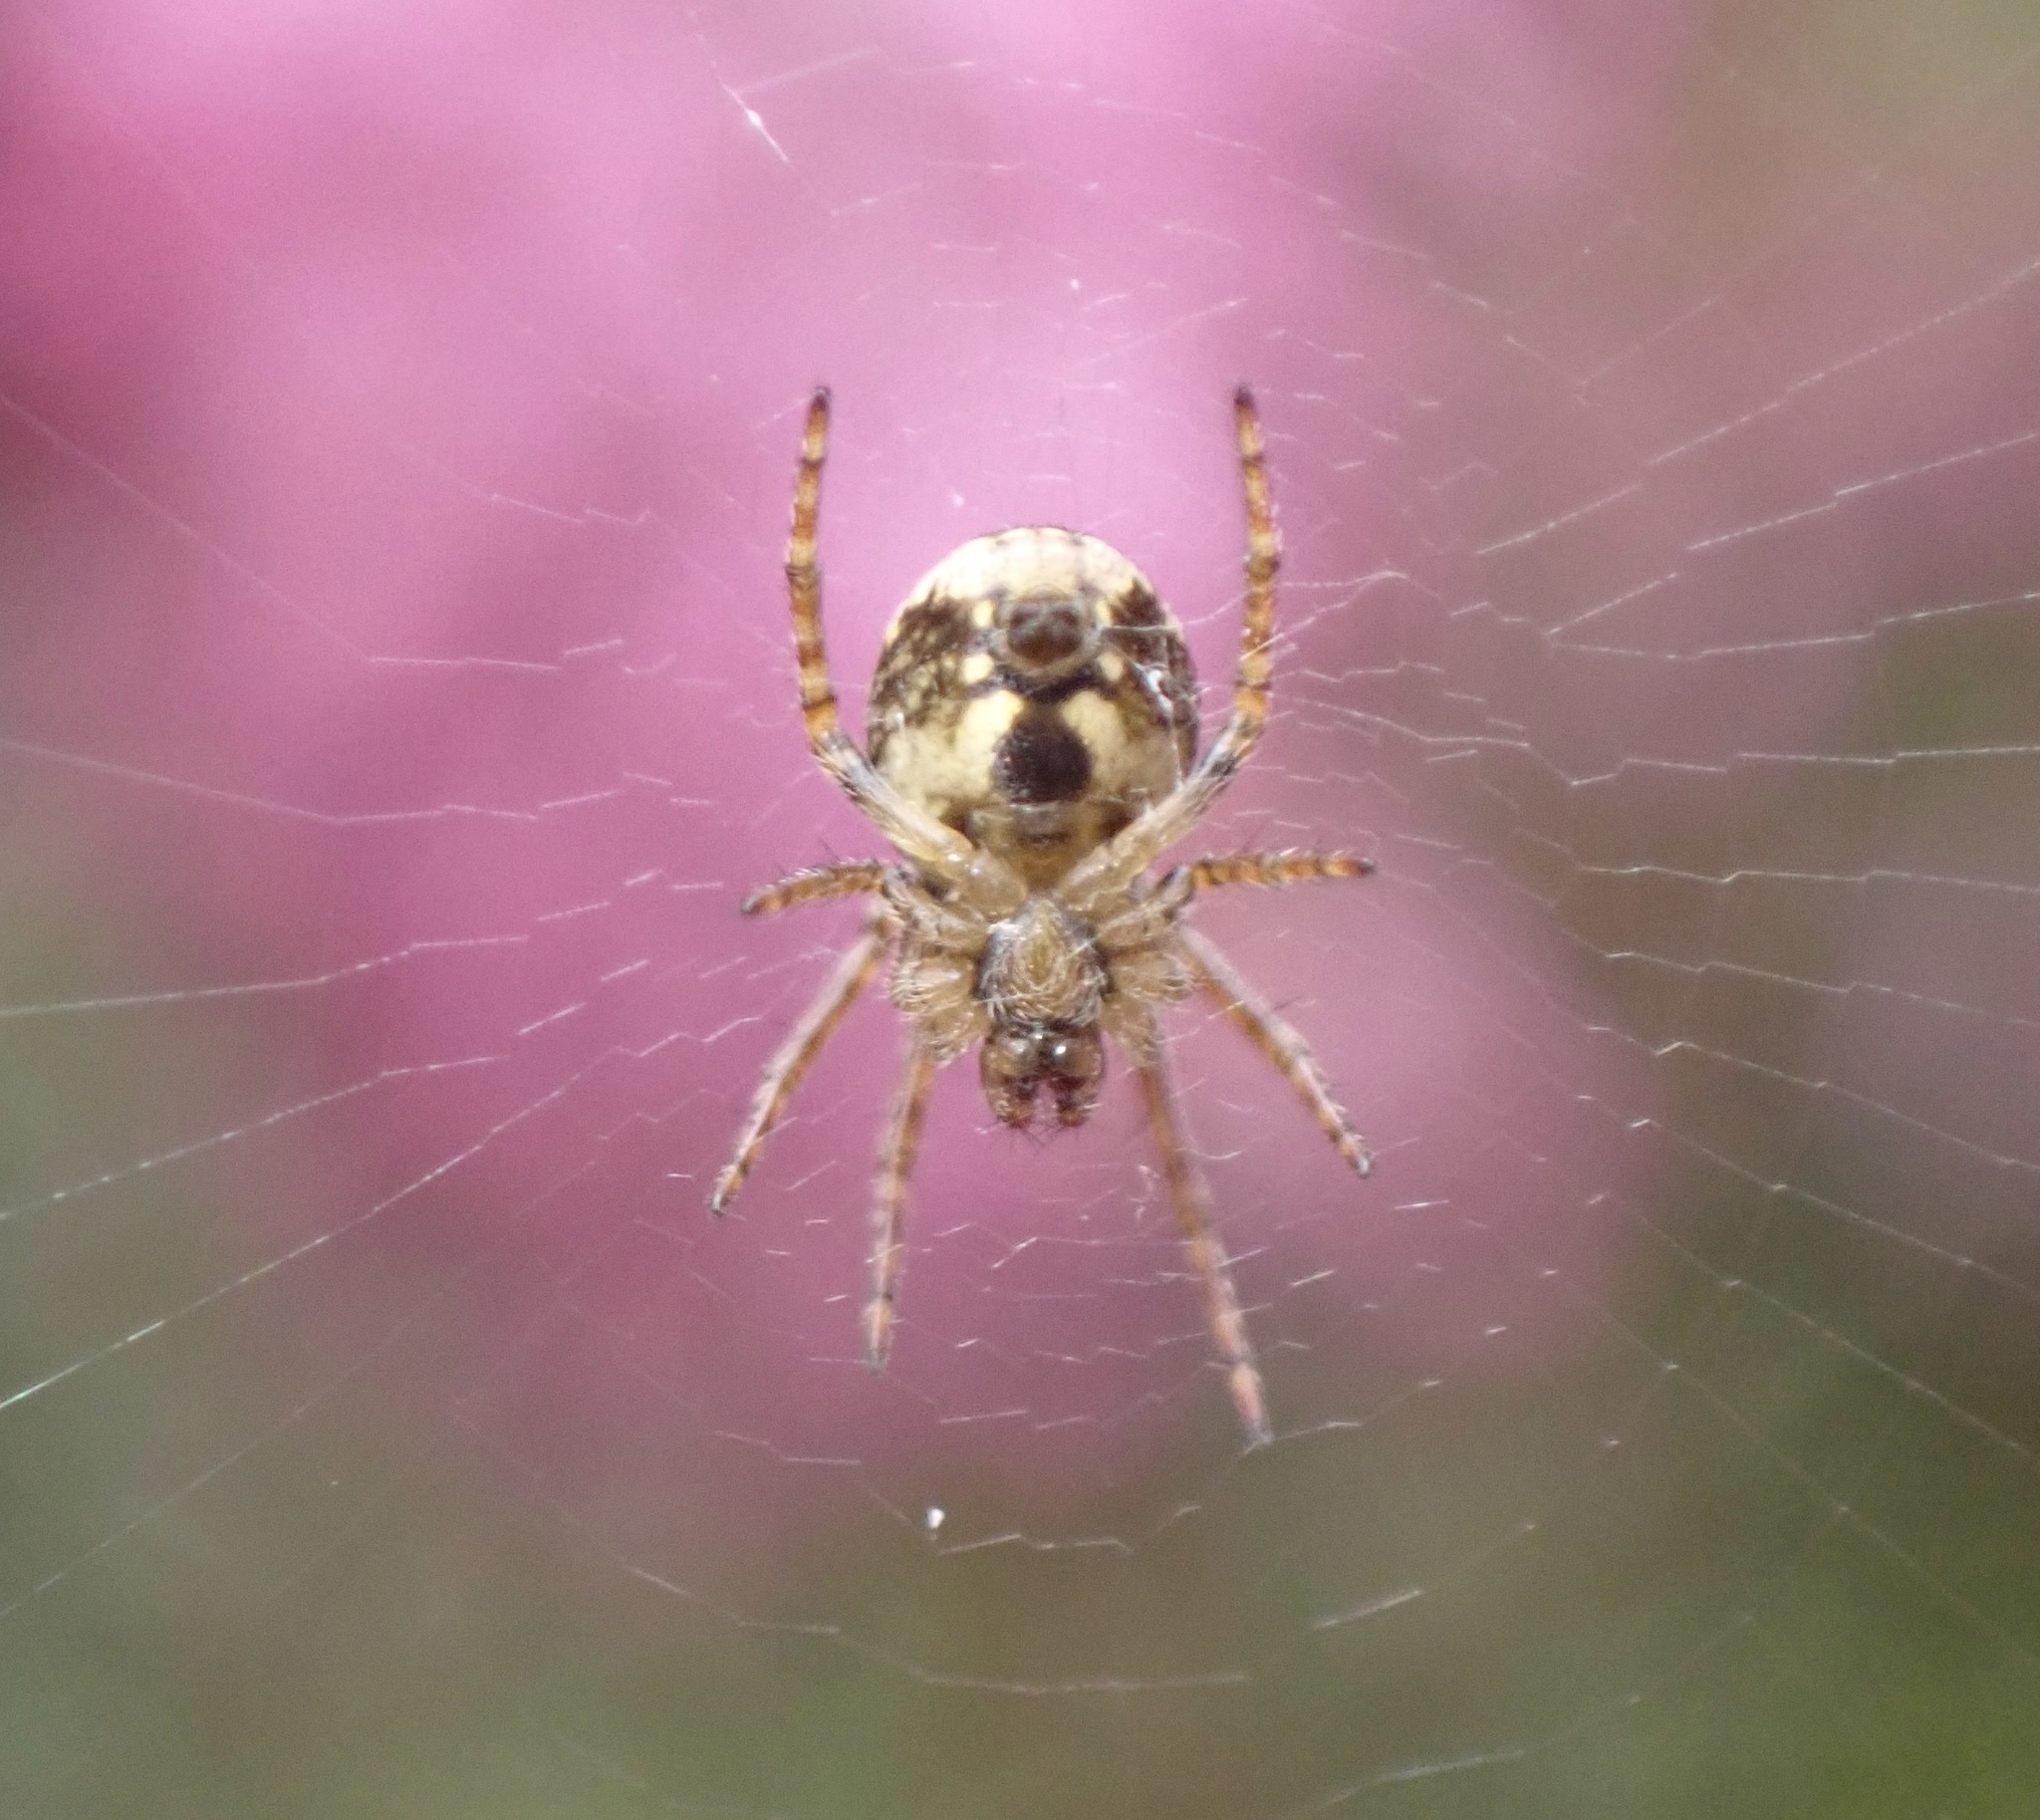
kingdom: Animalia
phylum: Arthropoda
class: Arachnida
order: Araneae
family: Araneidae
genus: Zilla
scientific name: Zilla diodia
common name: Zilla diodia
